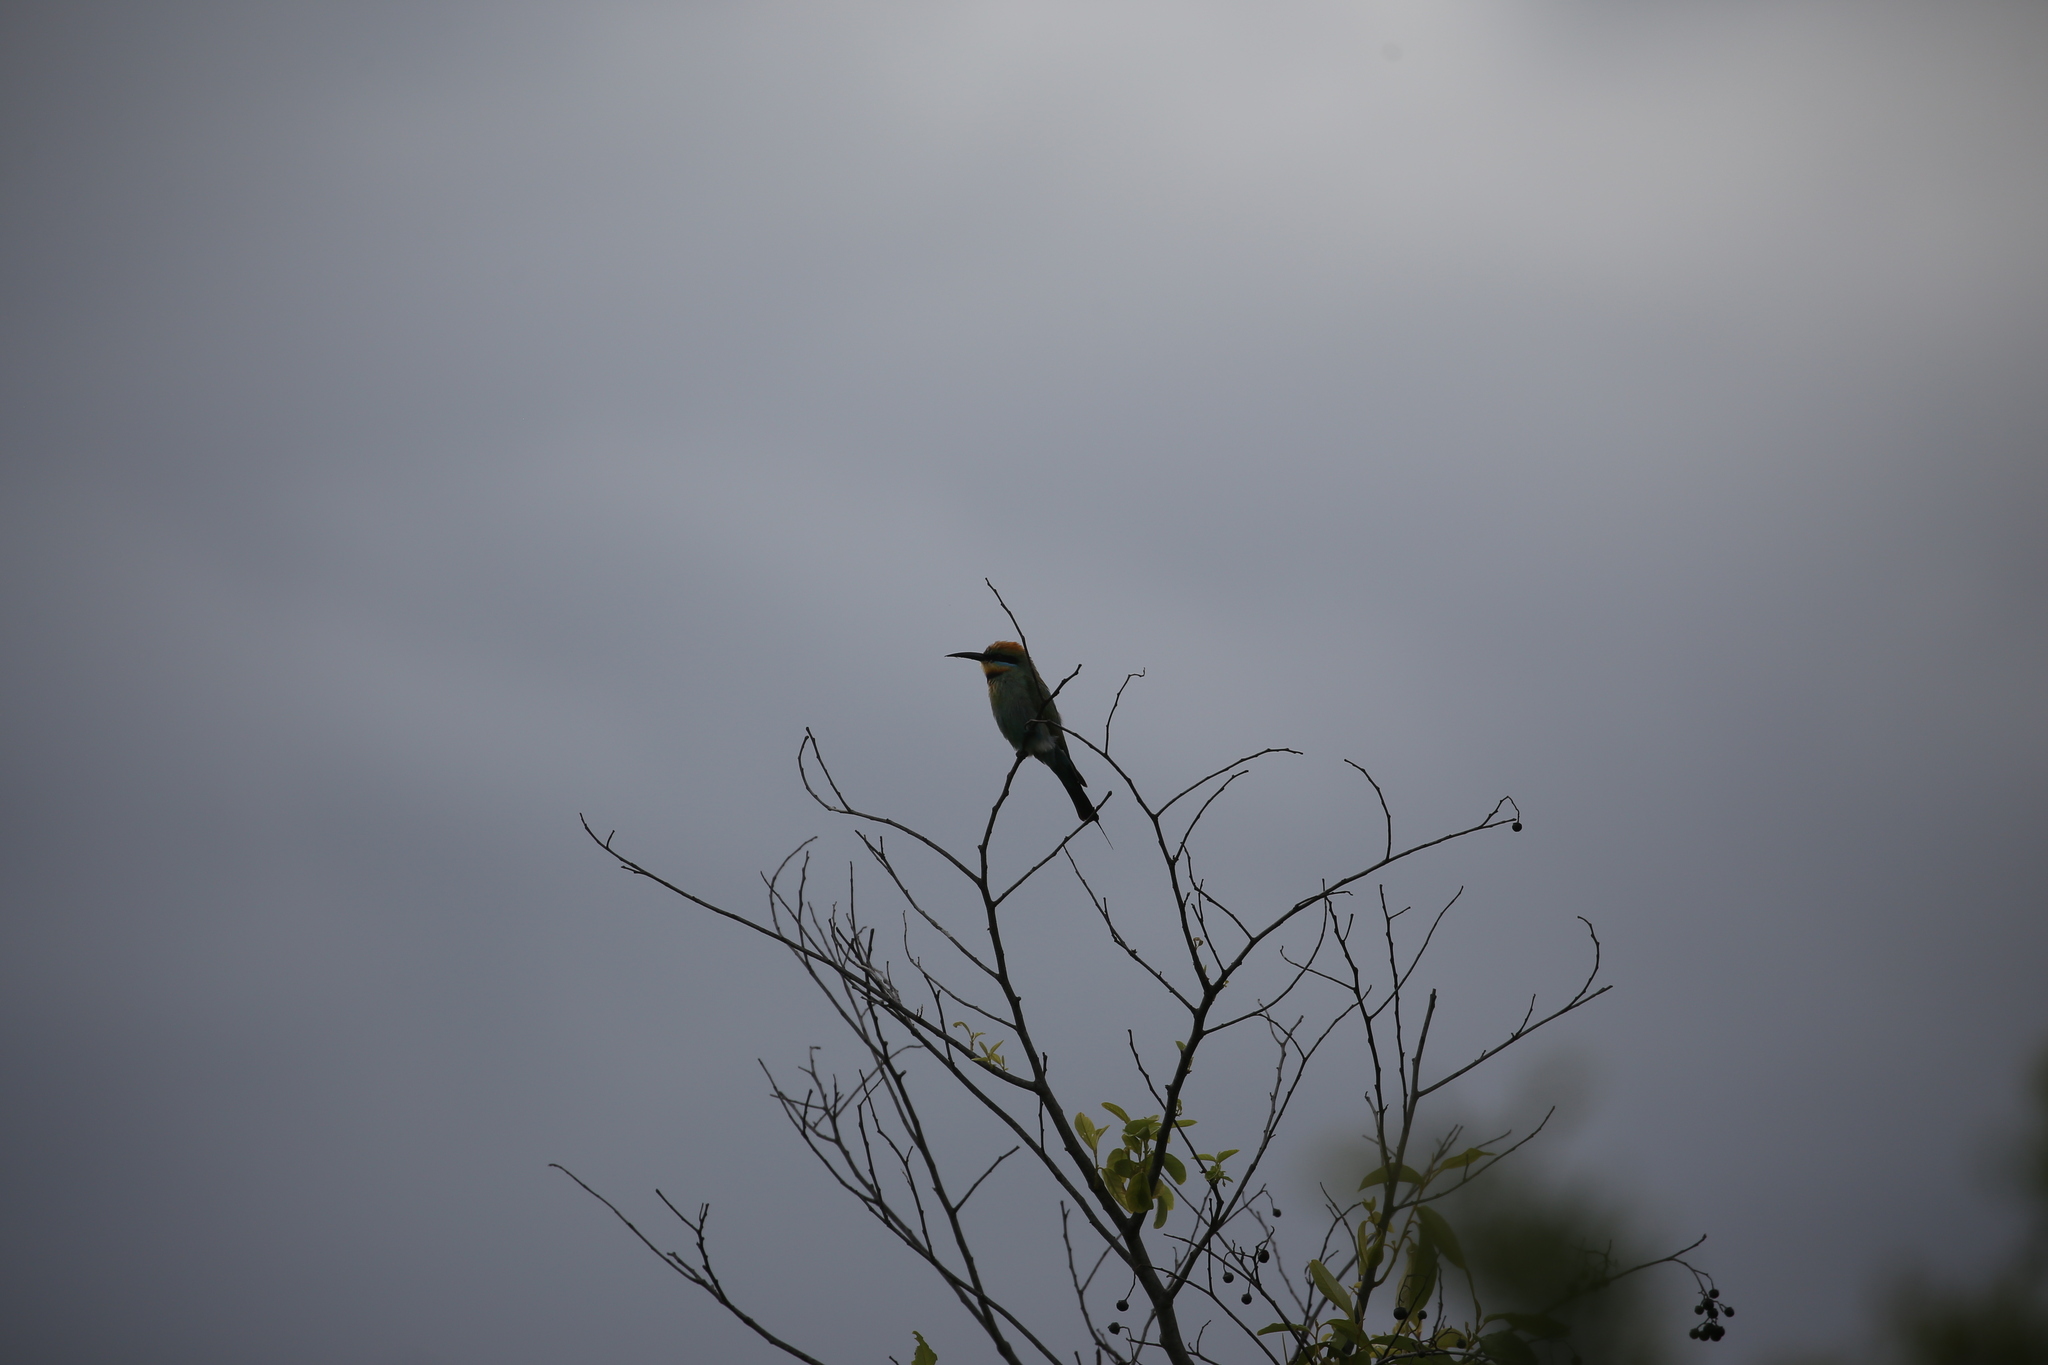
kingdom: Animalia
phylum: Chordata
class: Aves
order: Coraciiformes
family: Meropidae
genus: Merops
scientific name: Merops ornatus
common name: Rainbow bee-eater
